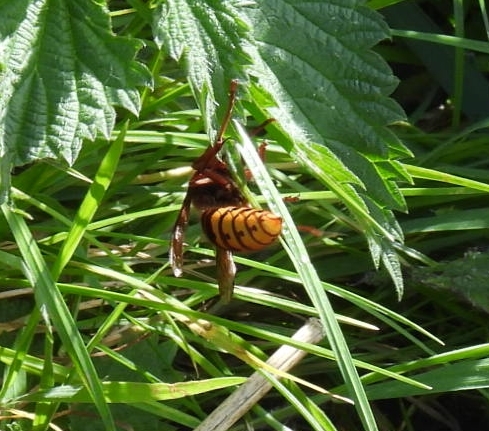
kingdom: Animalia
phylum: Arthropoda
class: Insecta
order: Hymenoptera
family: Vespidae
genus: Vespa
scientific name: Vespa crabro
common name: Hornet
